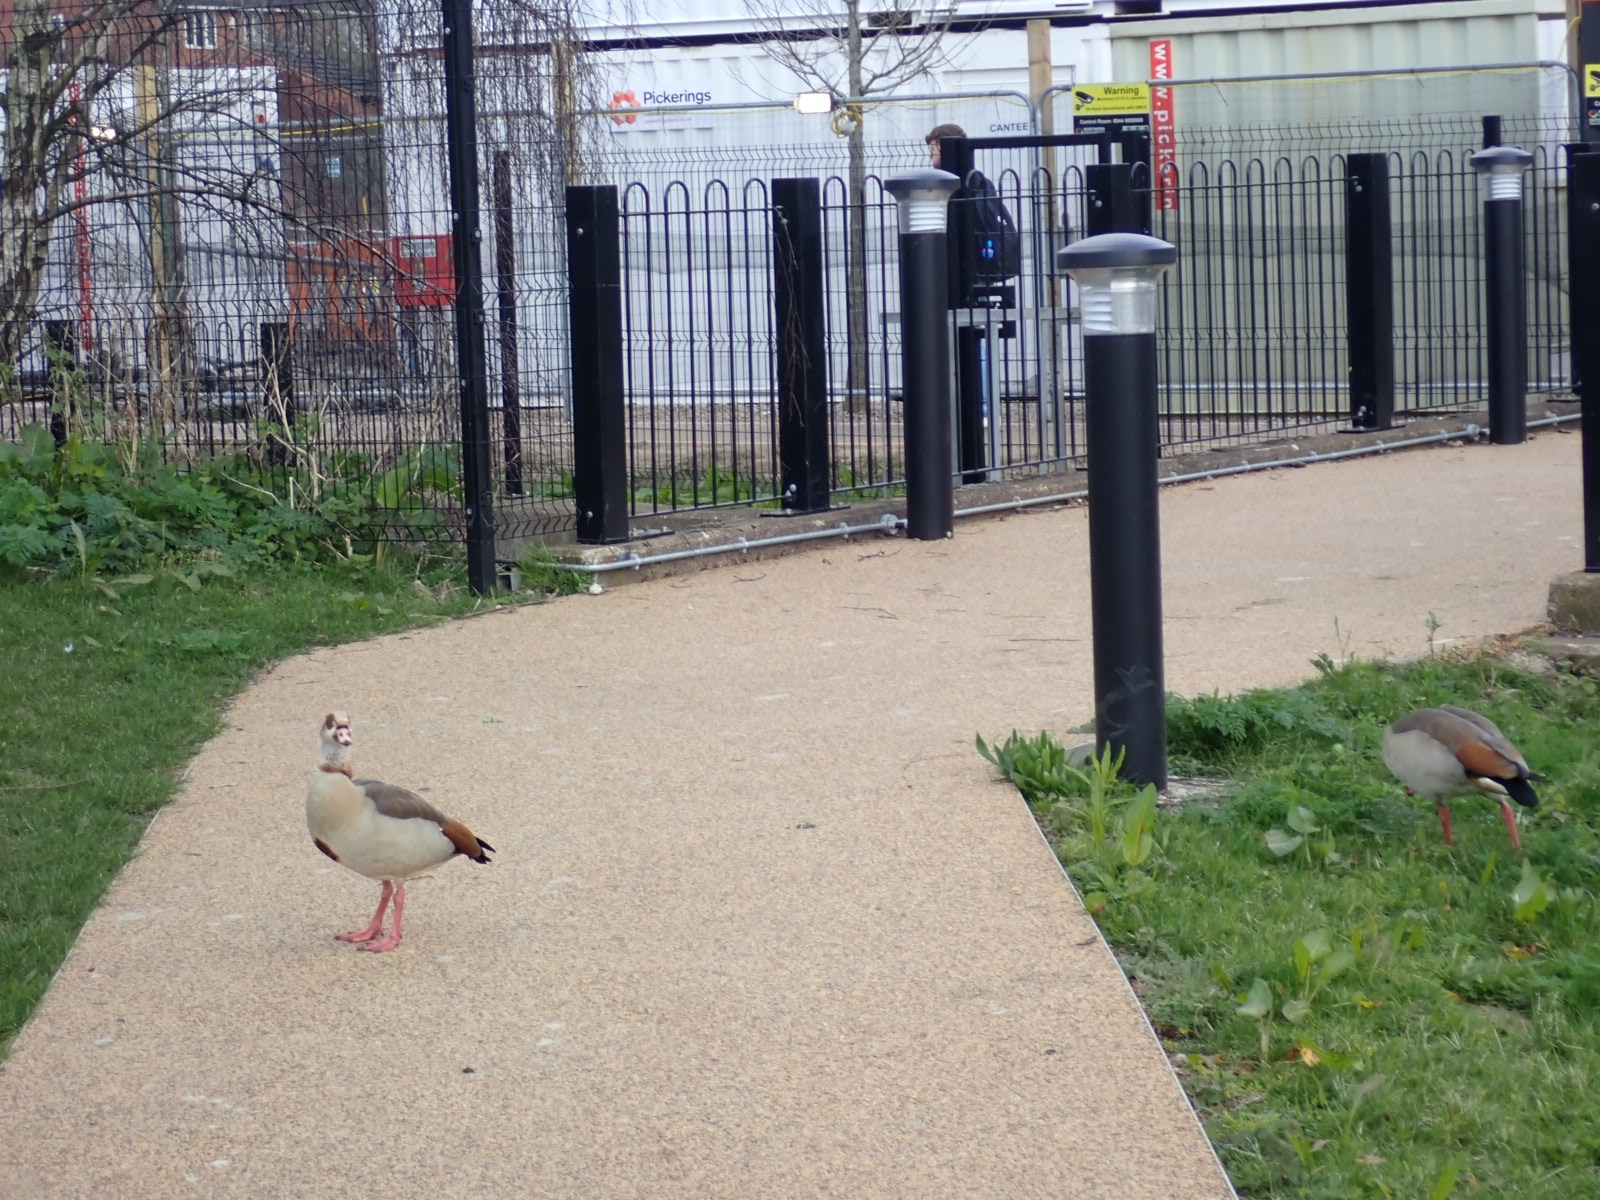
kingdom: Animalia
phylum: Chordata
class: Aves
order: Anseriformes
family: Anatidae
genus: Alopochen
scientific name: Alopochen aegyptiaca
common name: Egyptian goose
